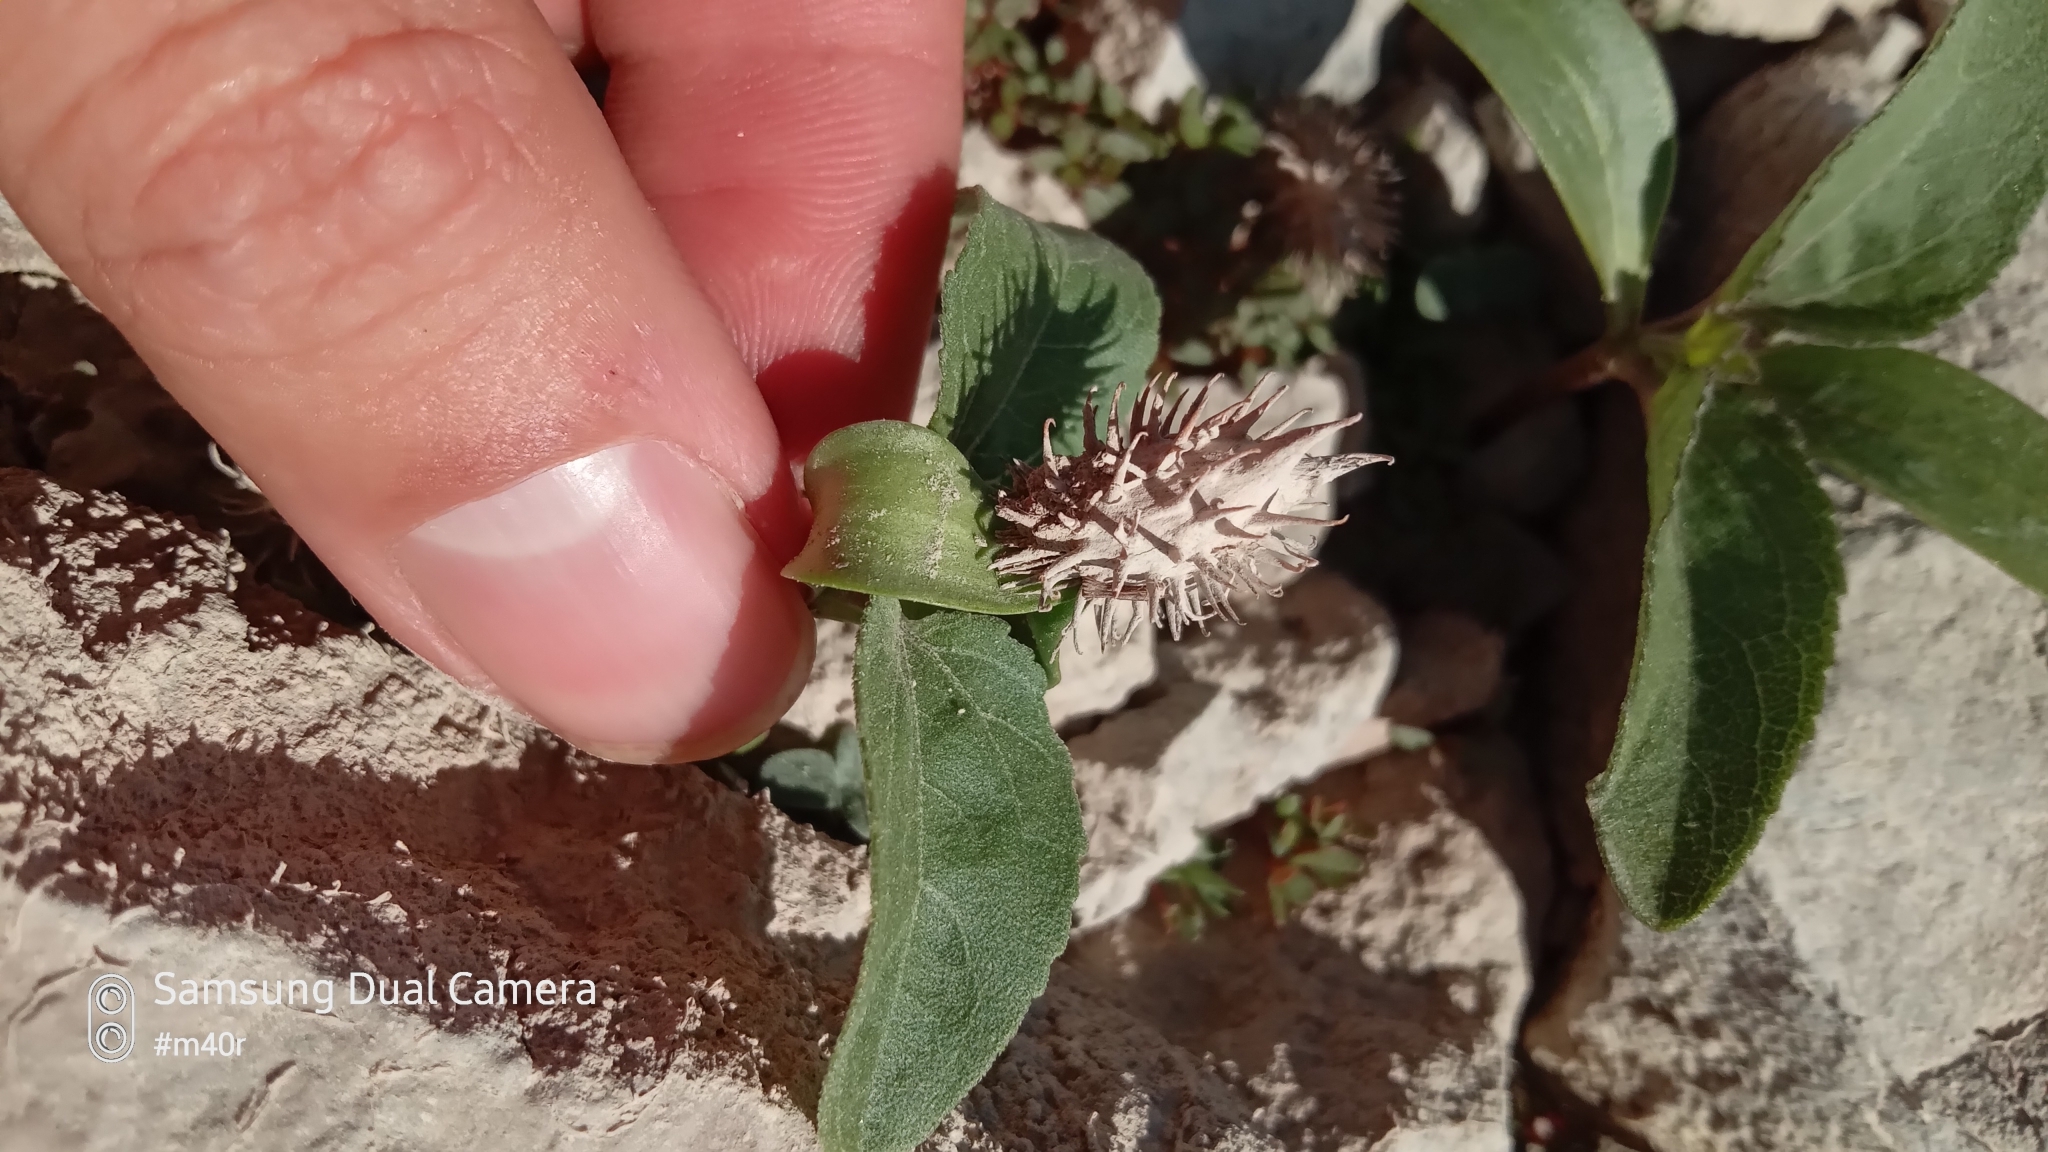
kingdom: Plantae
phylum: Tracheophyta
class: Magnoliopsida
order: Asterales
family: Asteraceae
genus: Xanthium
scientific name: Xanthium orientale
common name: Californian burr
